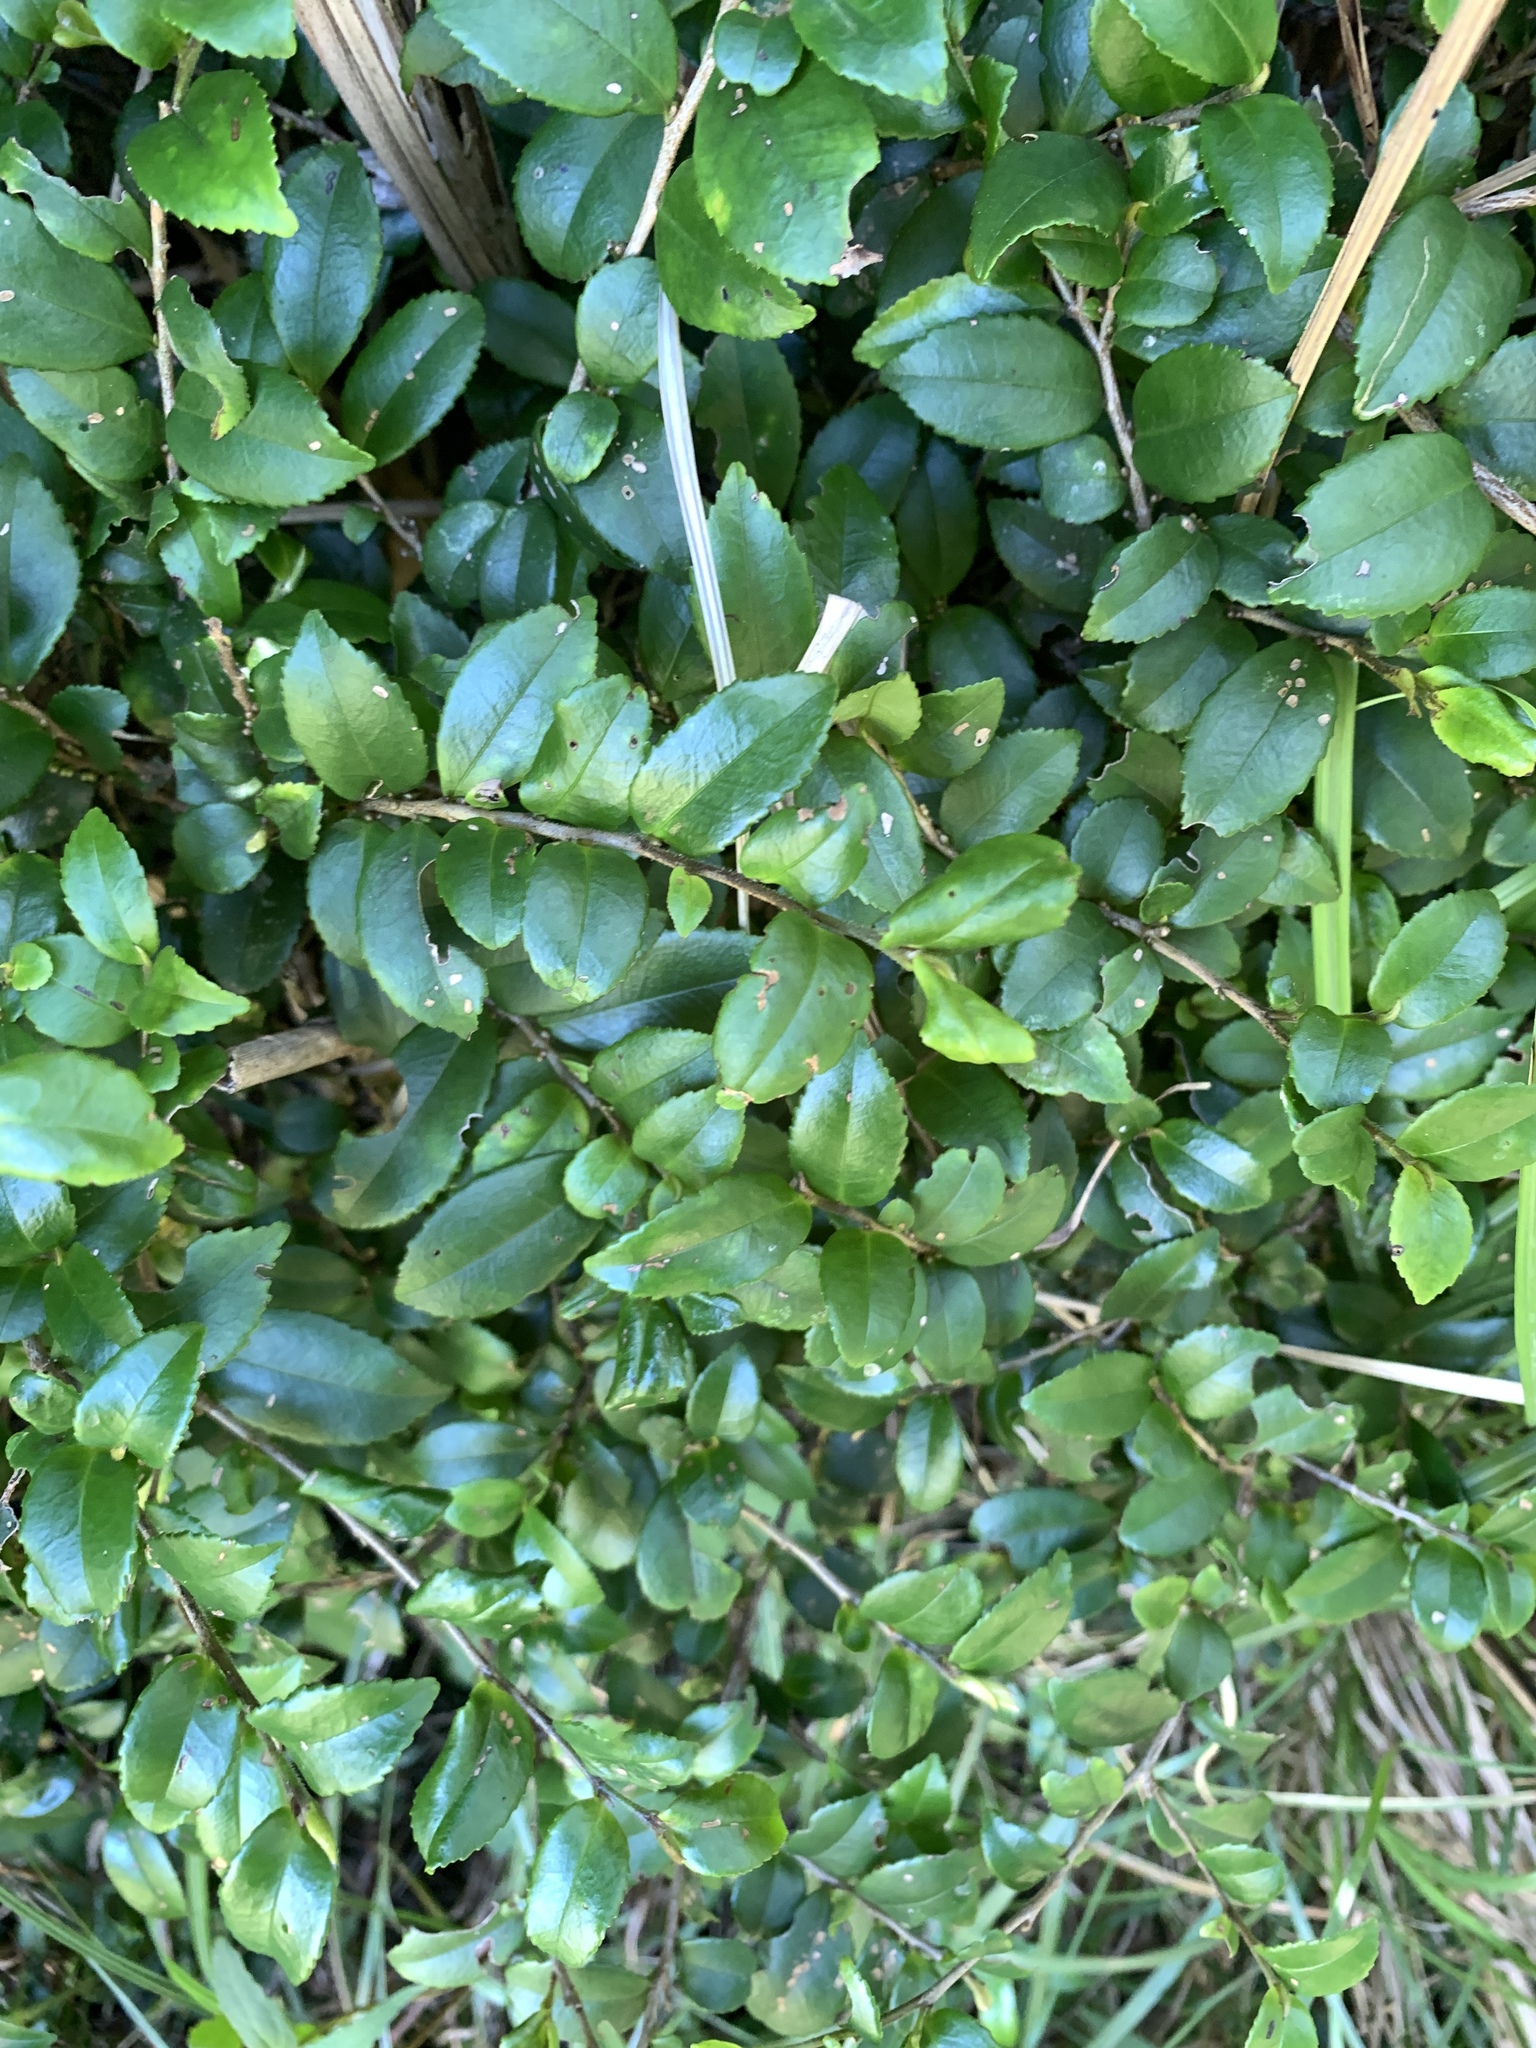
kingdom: Plantae
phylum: Tracheophyta
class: Magnoliopsida
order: Ericales
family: Pentaphylacaceae
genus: Eurya
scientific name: Eurya crenatifolia
